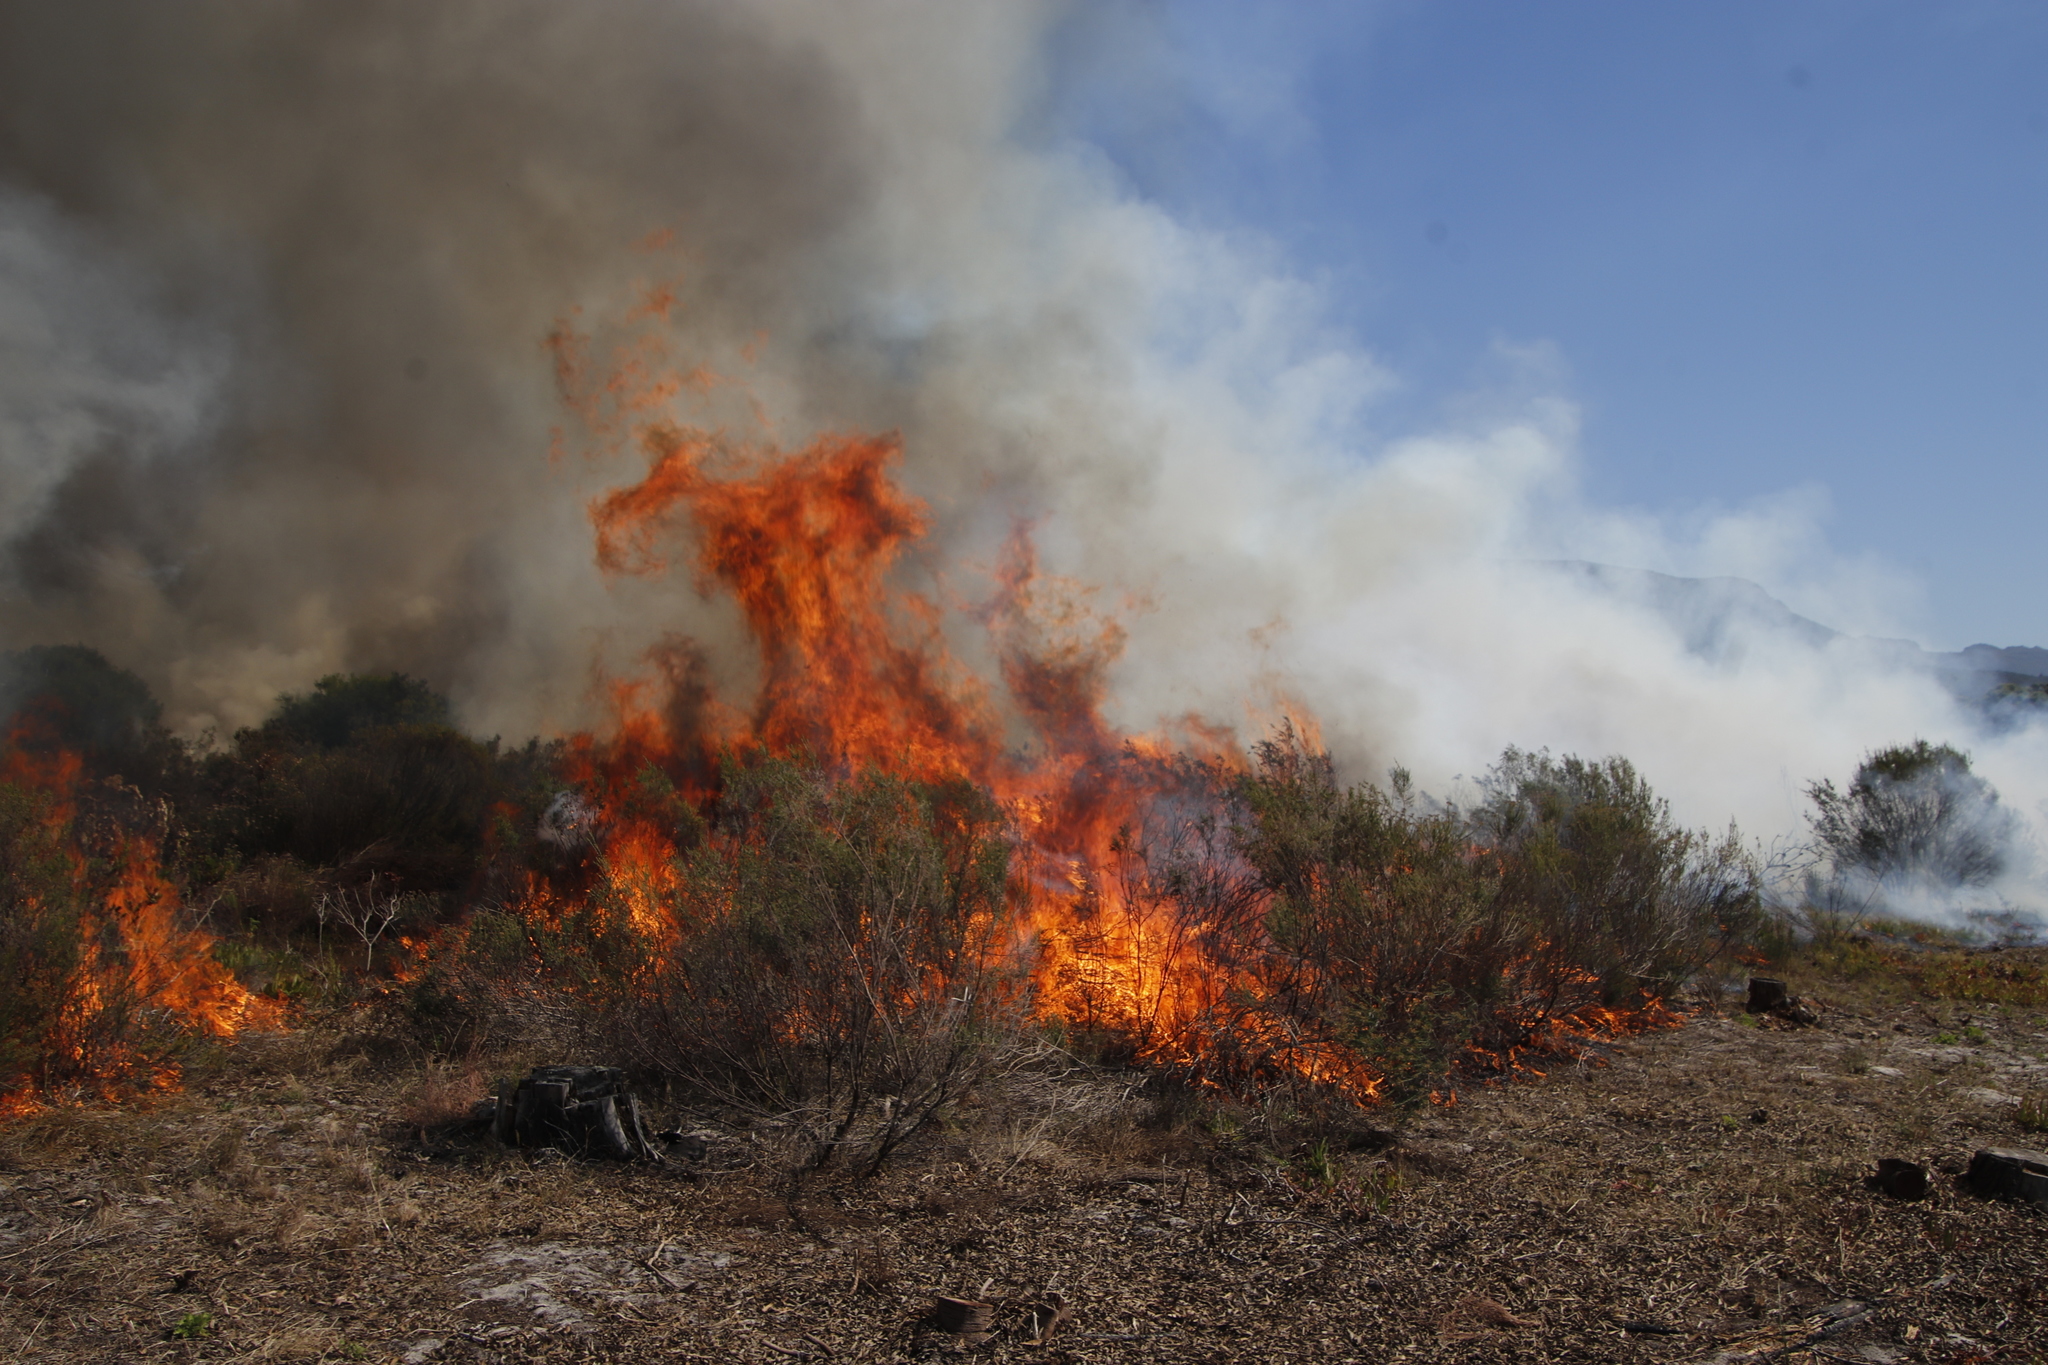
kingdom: Plantae
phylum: Tracheophyta
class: Magnoliopsida
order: Malvales
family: Thymelaeaceae
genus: Passerina
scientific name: Passerina corymbosa
